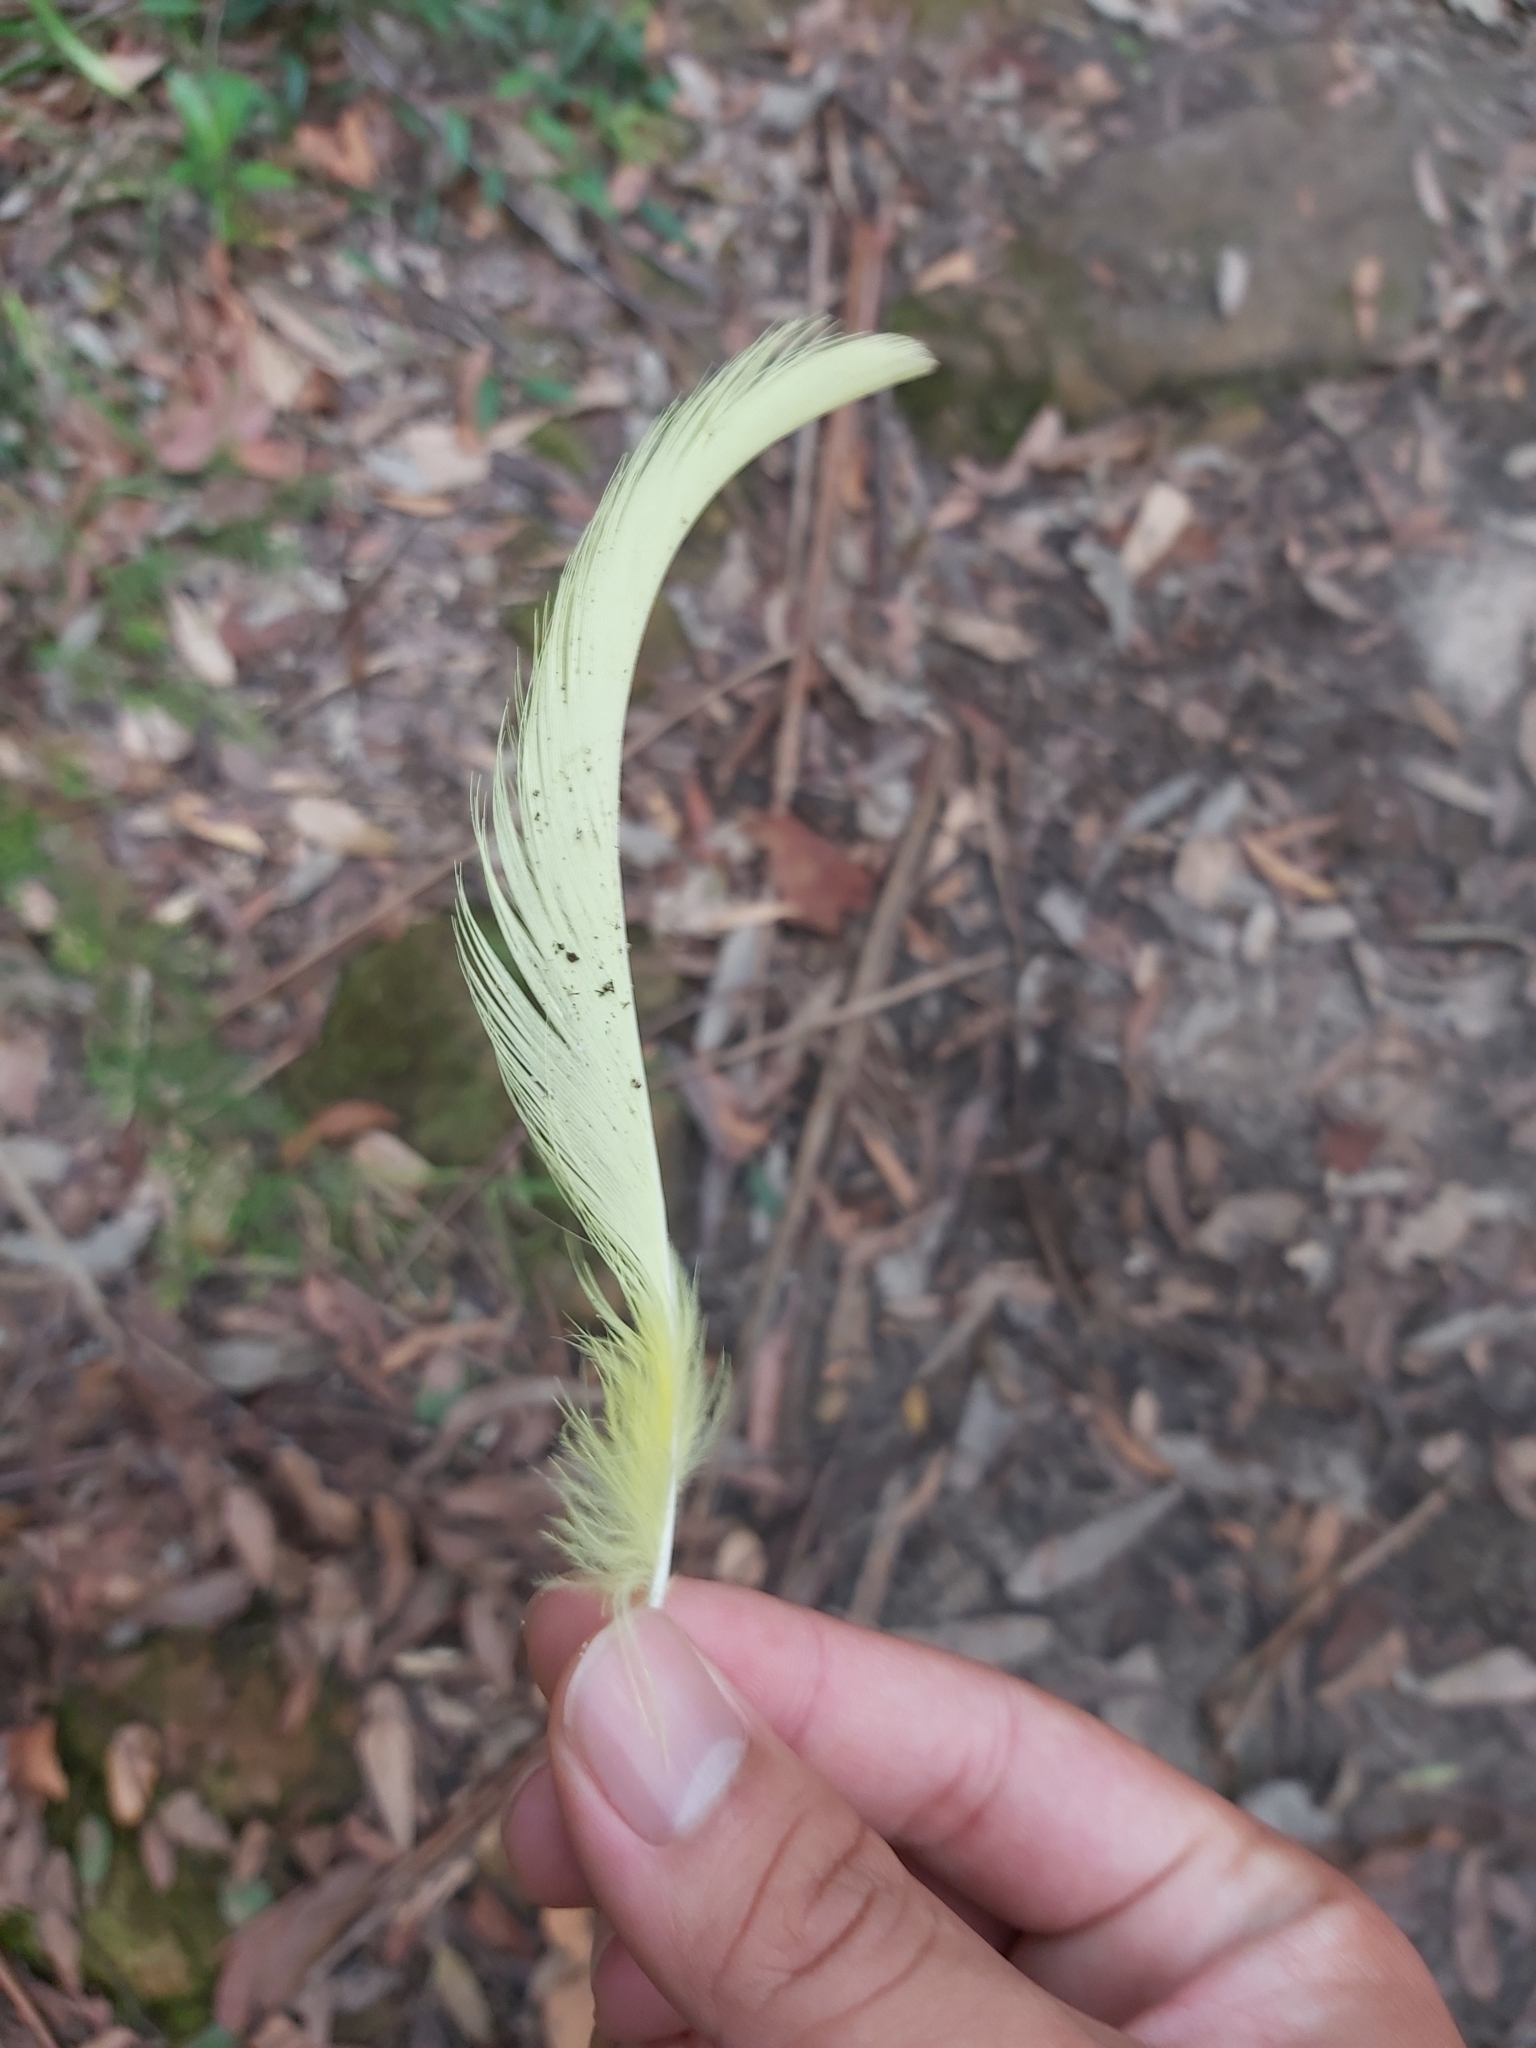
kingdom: Animalia
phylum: Chordata
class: Aves
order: Psittaciformes
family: Psittacidae
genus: Cacatua
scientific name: Cacatua galerita
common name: Sulphur-crested cockatoo
